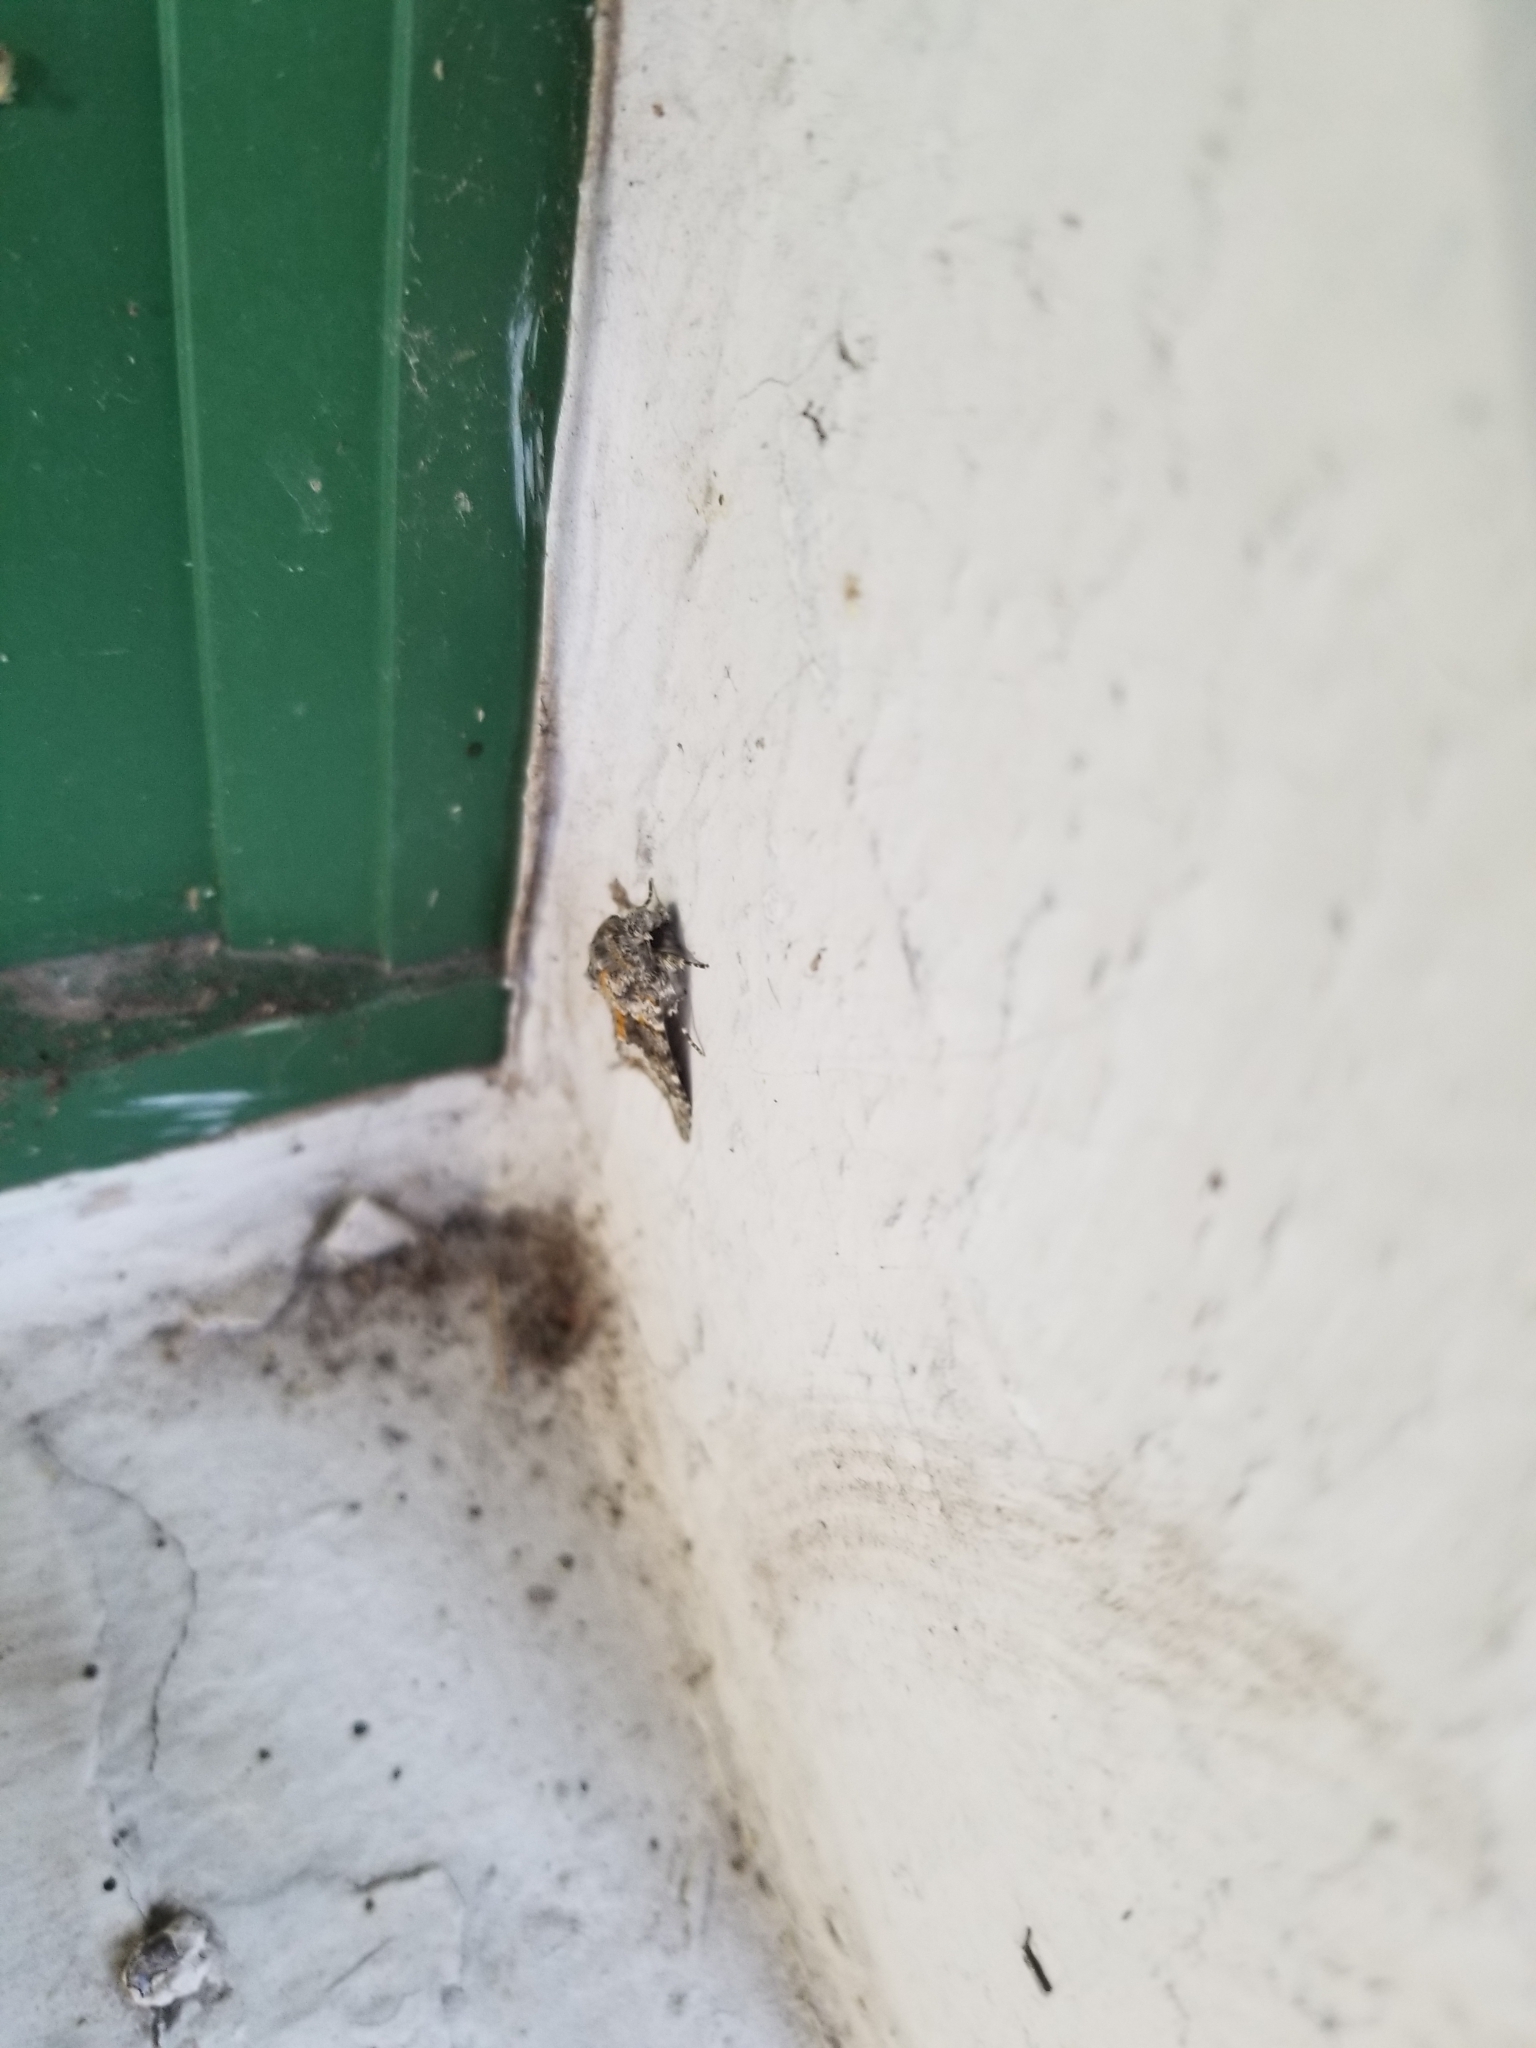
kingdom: Animalia
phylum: Arthropoda
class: Insecta
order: Lepidoptera
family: Noctuidae
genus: Hecatera
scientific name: Hecatera dysodea
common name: Small ranunculus
